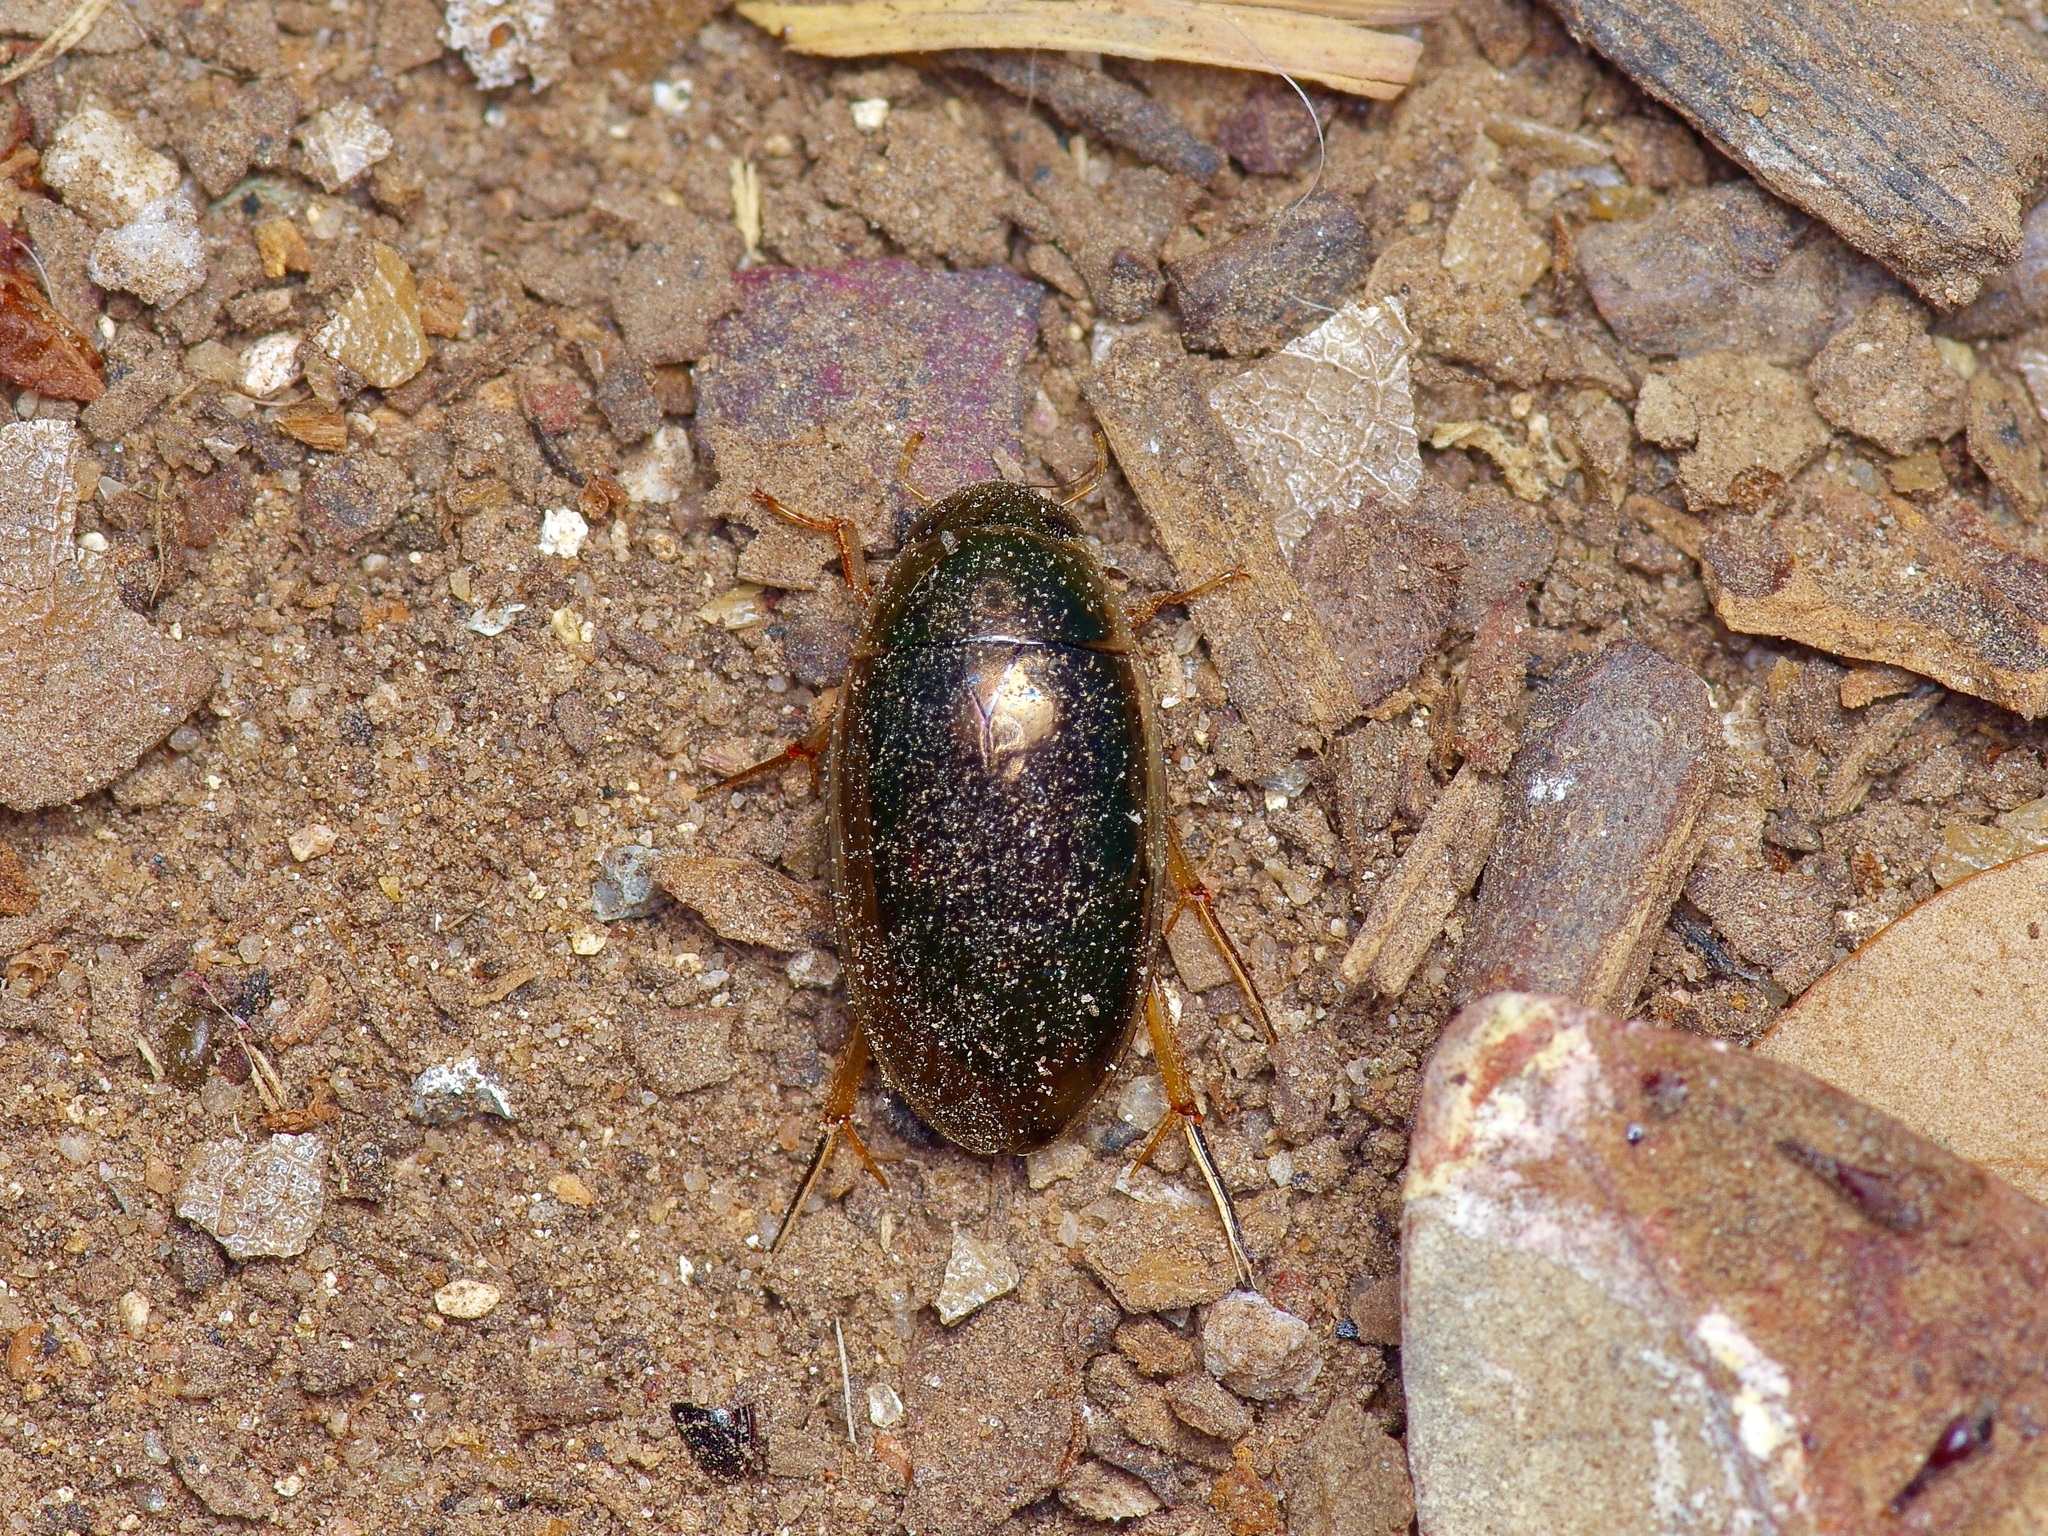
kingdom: Animalia
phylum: Arthropoda
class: Insecta
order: Coleoptera
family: Hydrophilidae
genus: Tropisternus
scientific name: Tropisternus lateralis
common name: Lateral-banded water scavenger beetle
